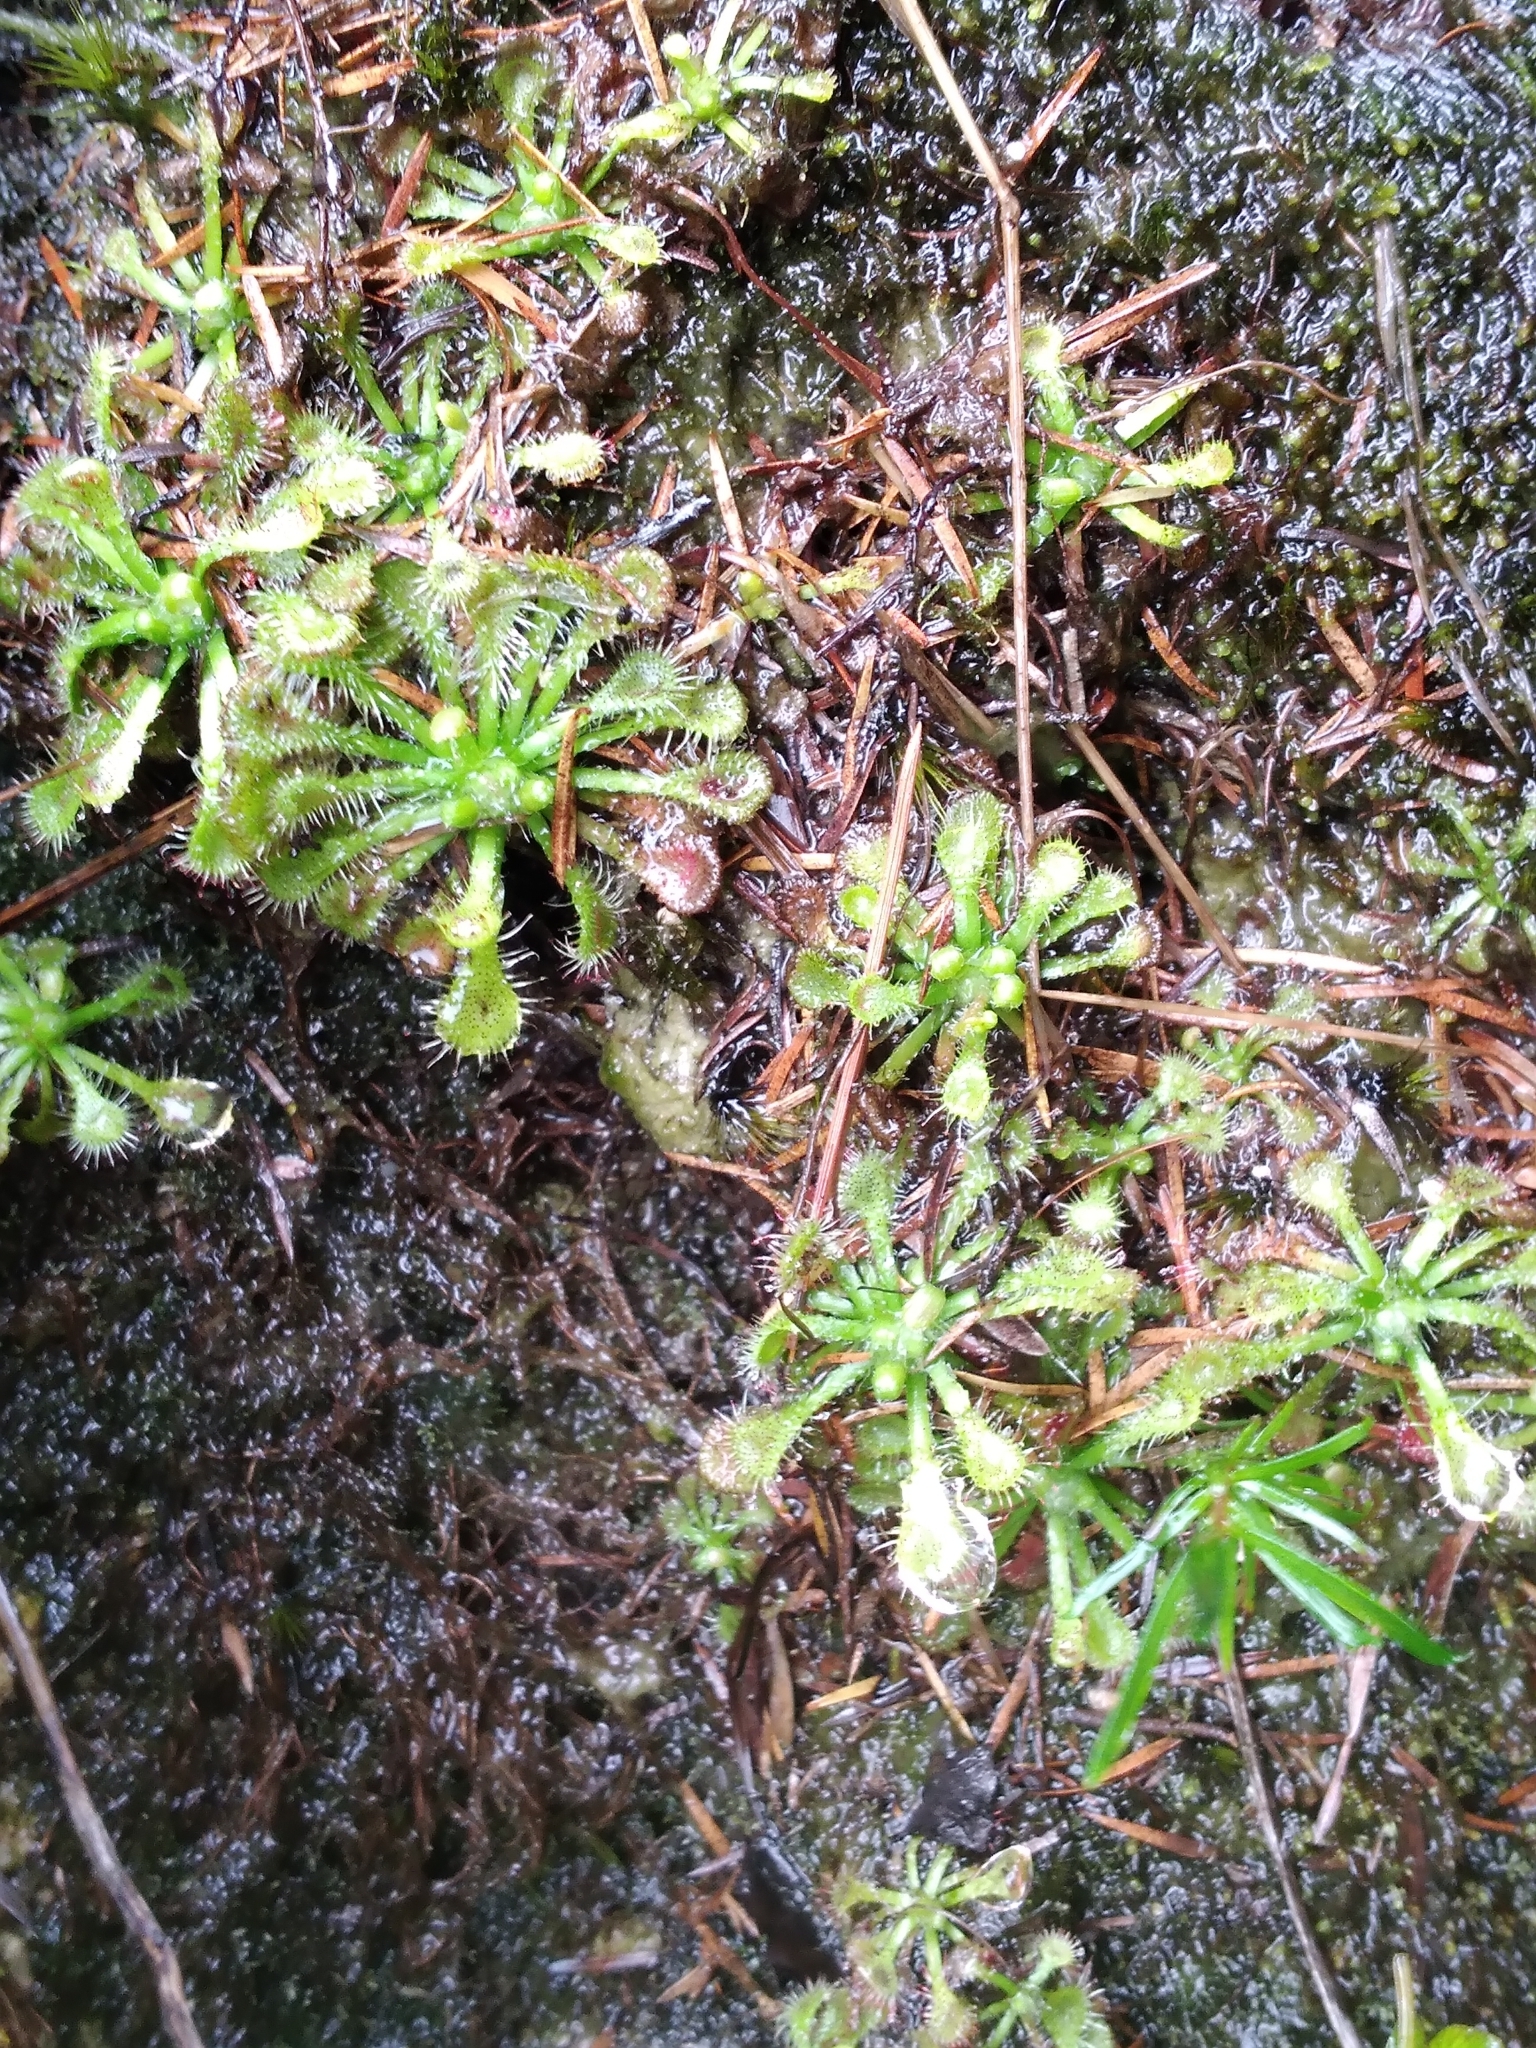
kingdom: Plantae
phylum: Tracheophyta
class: Magnoliopsida
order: Caryophyllales
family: Droseraceae
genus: Drosera
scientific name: Drosera spatulata
